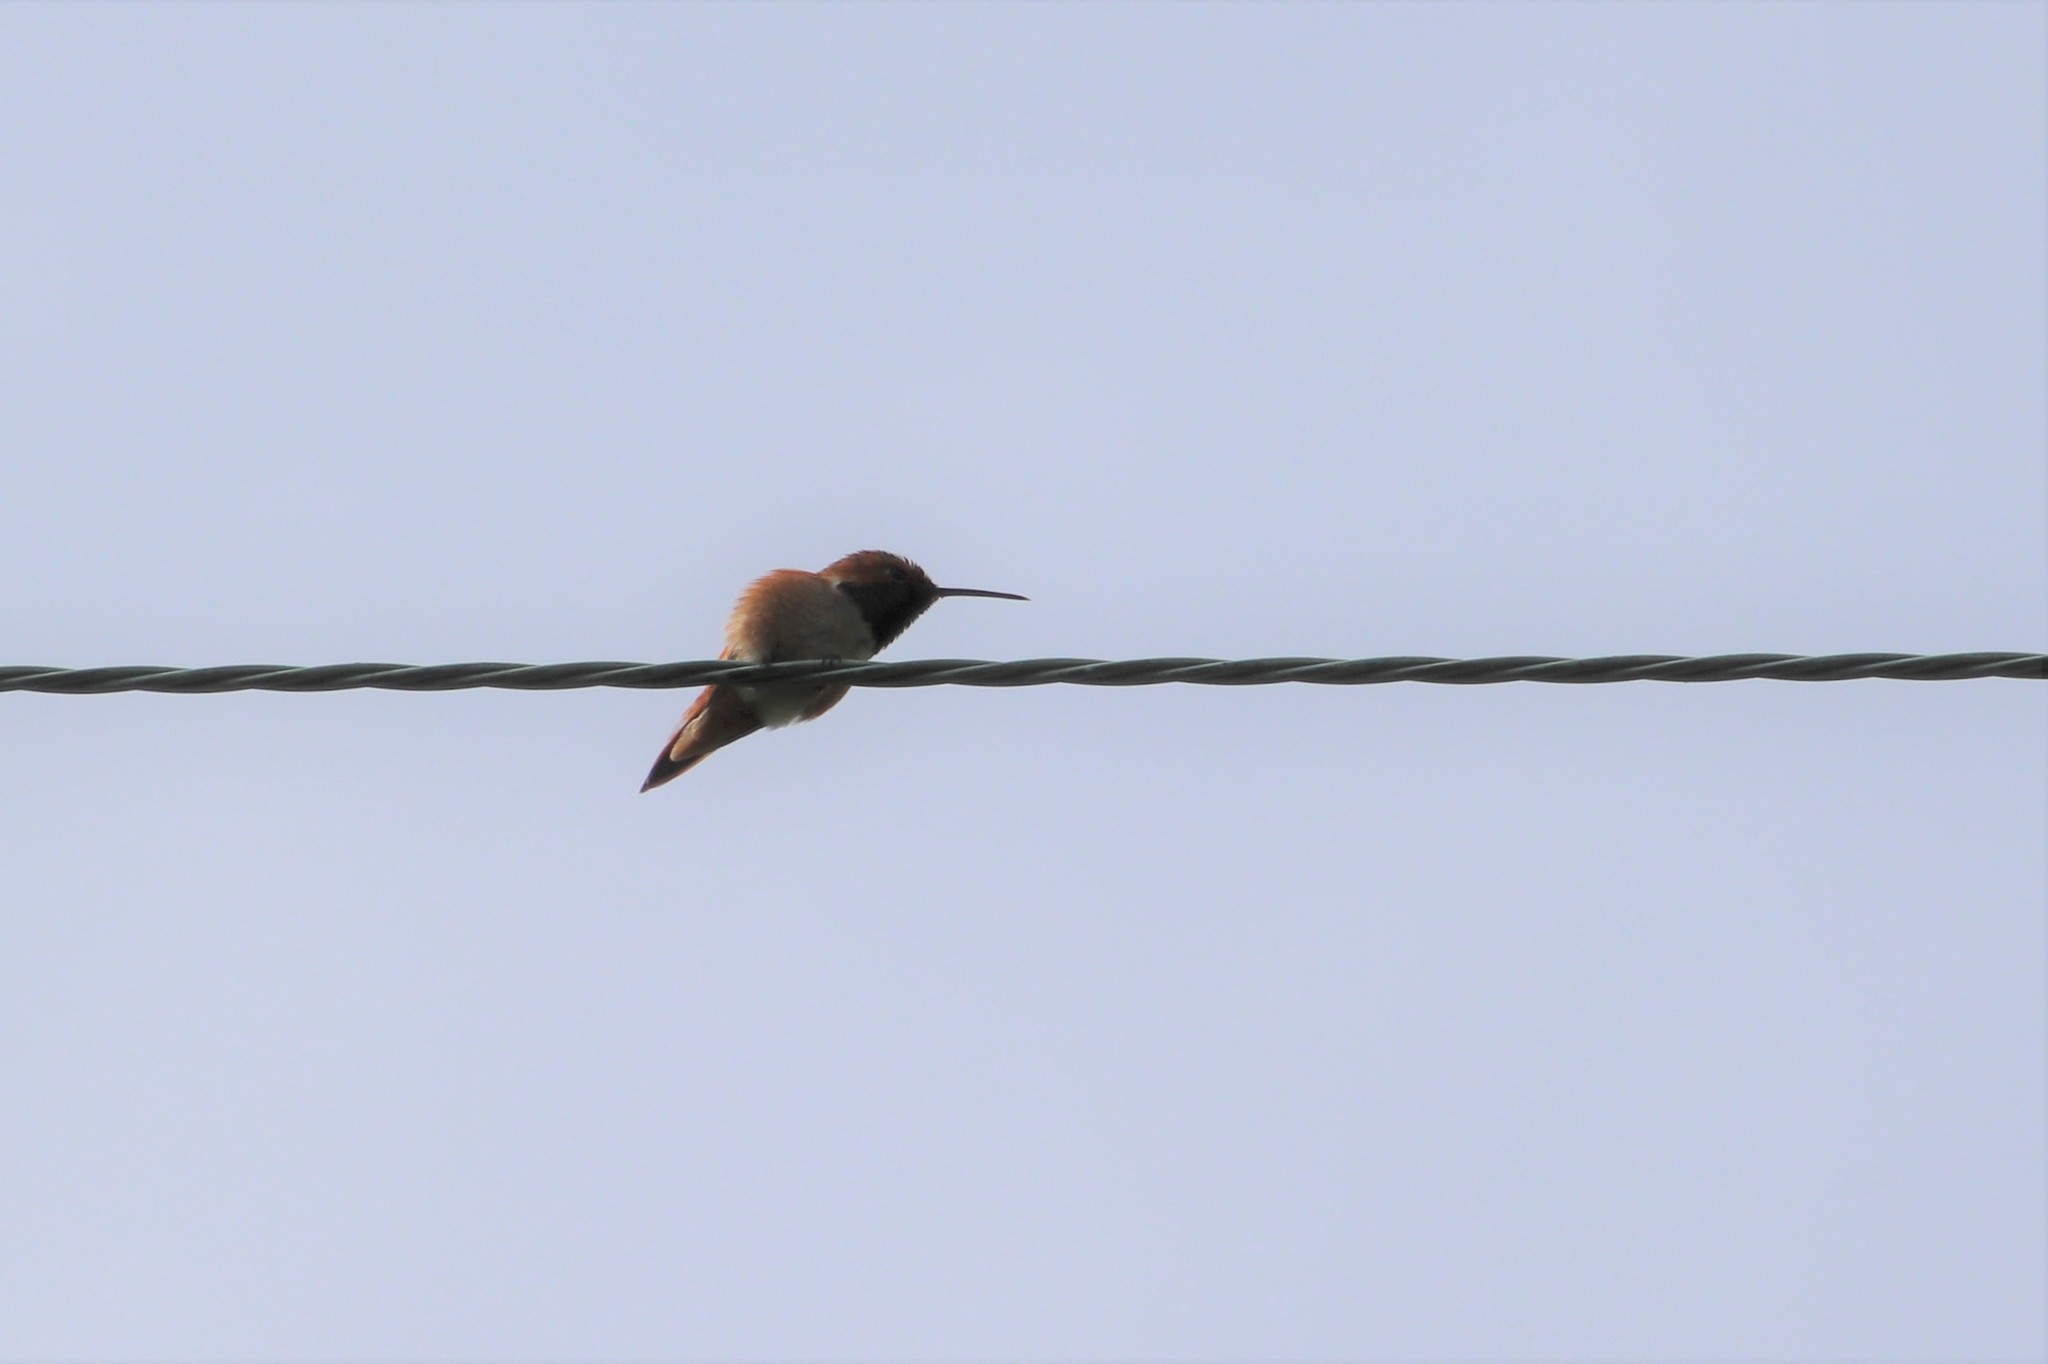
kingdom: Animalia
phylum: Chordata
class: Aves
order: Apodiformes
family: Trochilidae
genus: Selasphorus
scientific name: Selasphorus
